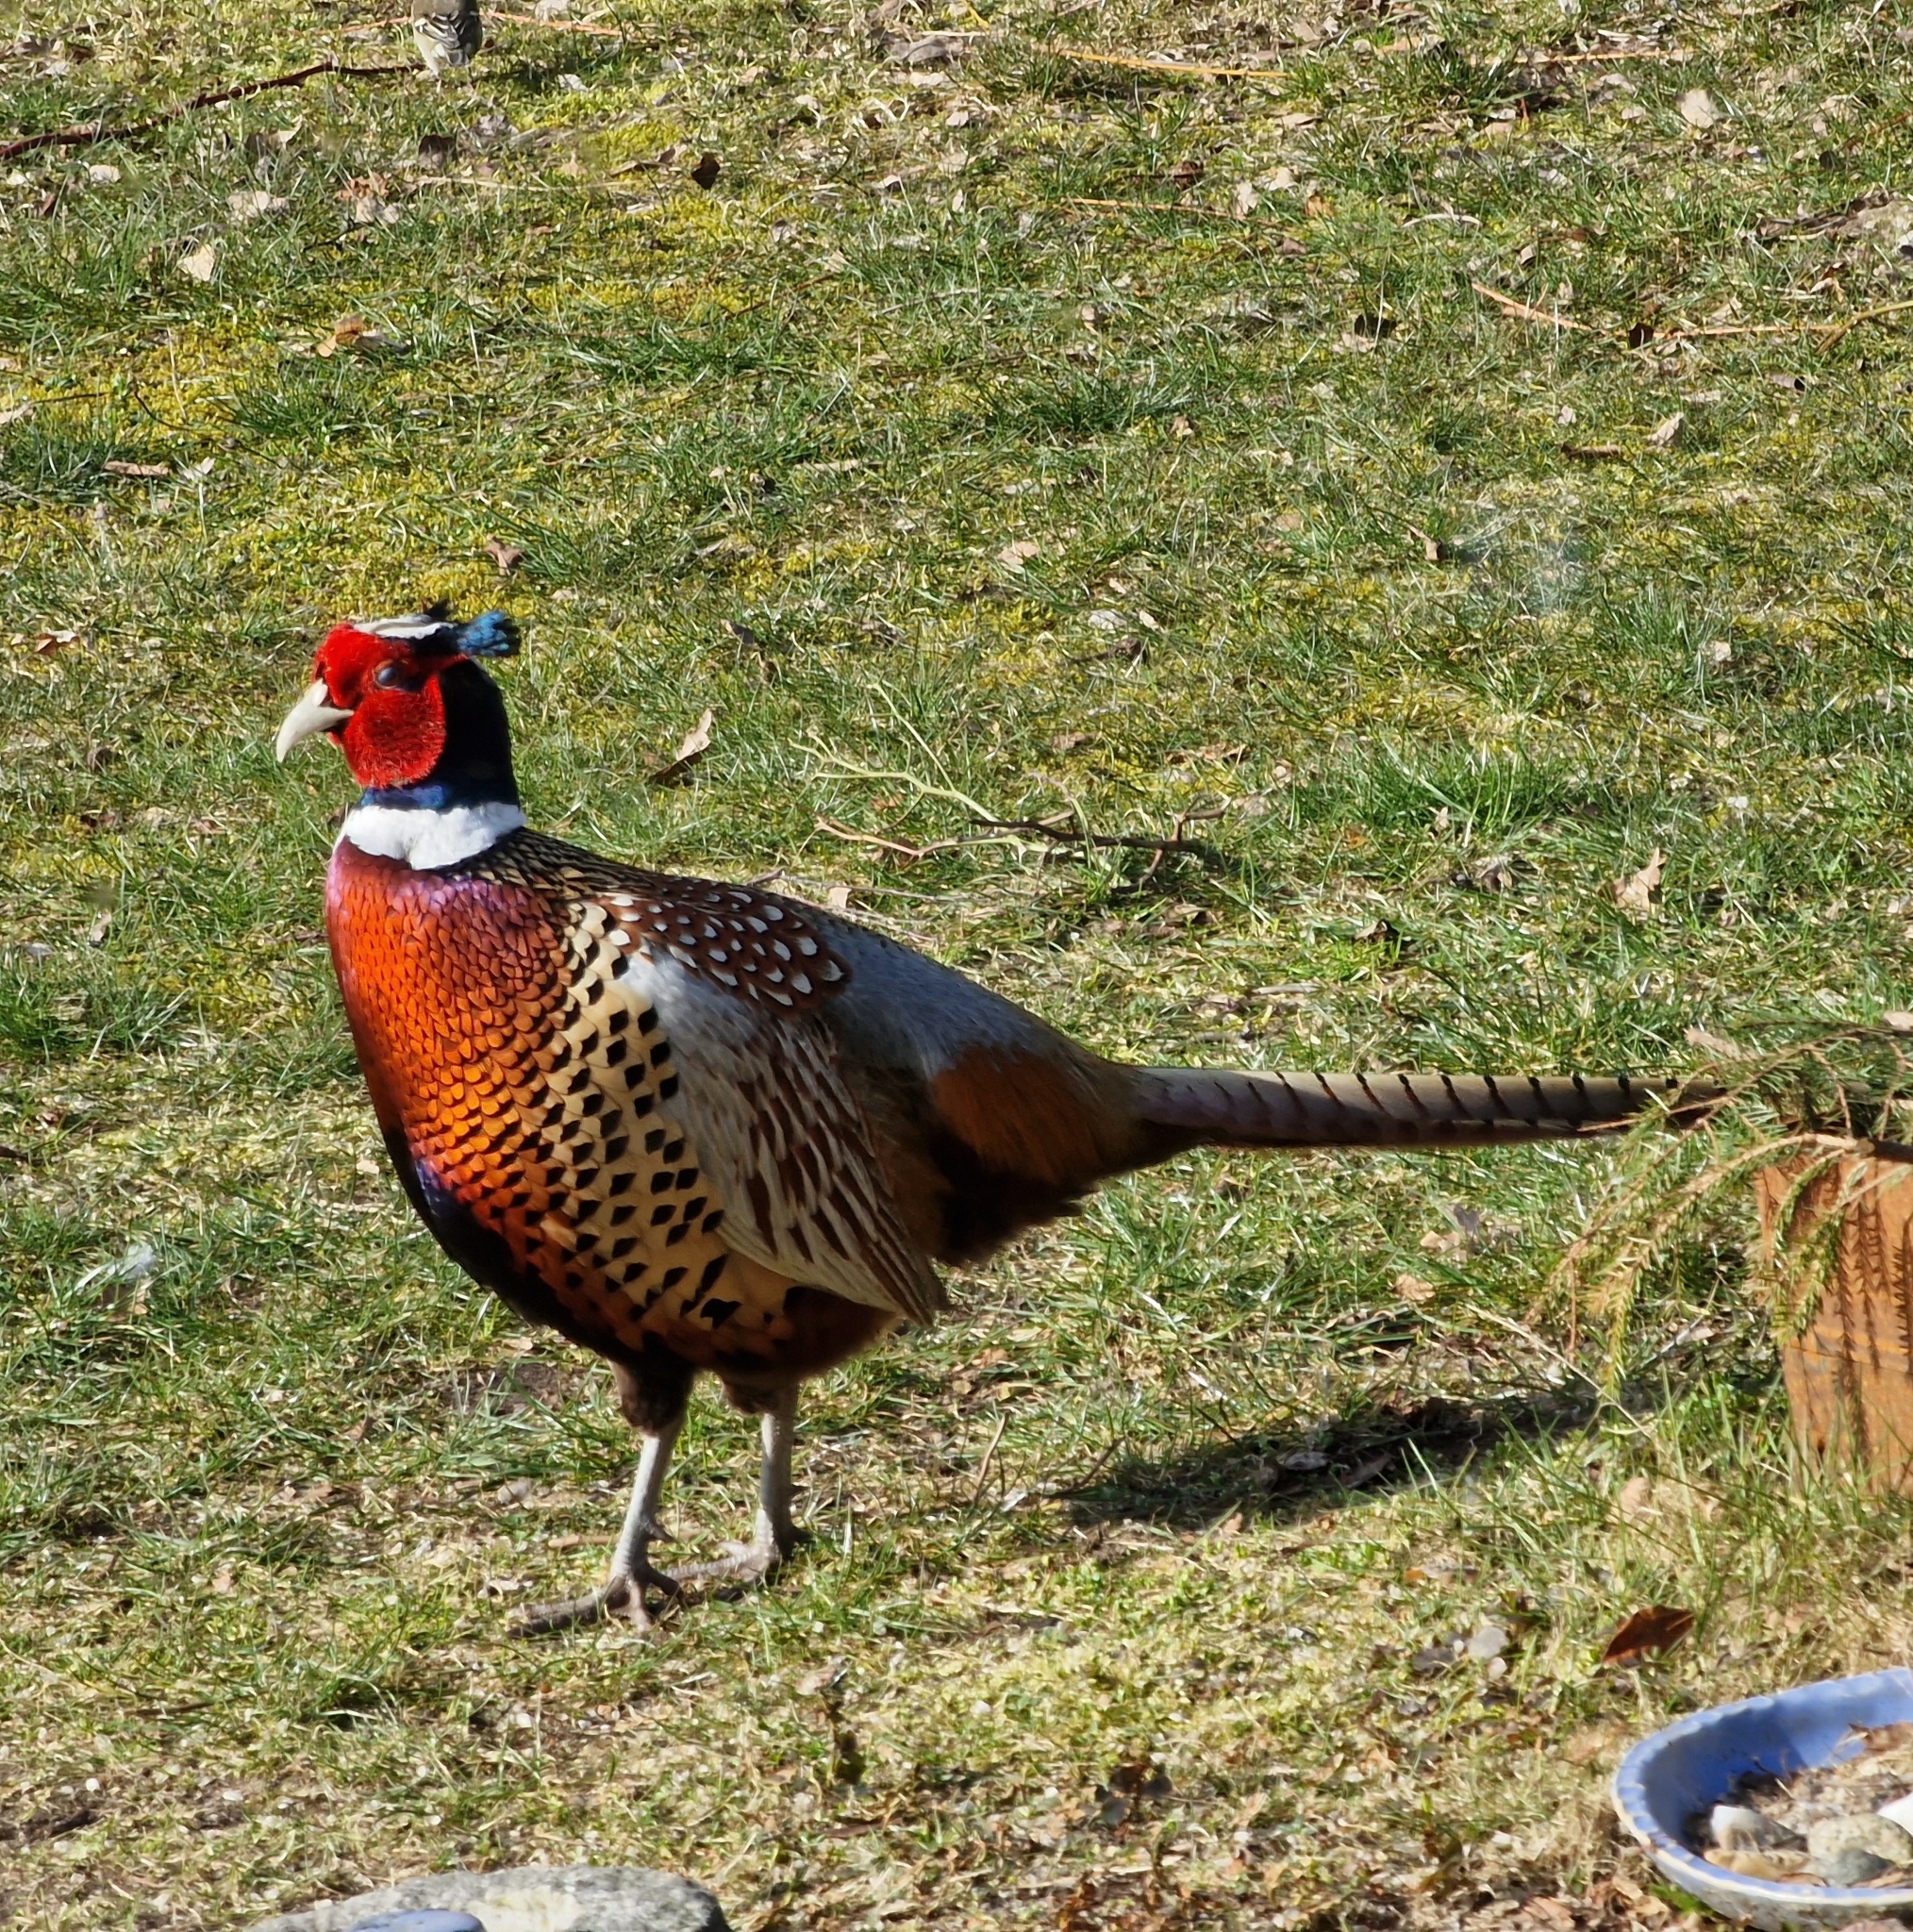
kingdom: Animalia
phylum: Chordata
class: Aves
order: Galliformes
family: Phasianidae
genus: Phasianus
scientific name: Phasianus colchicus
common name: Common pheasant
